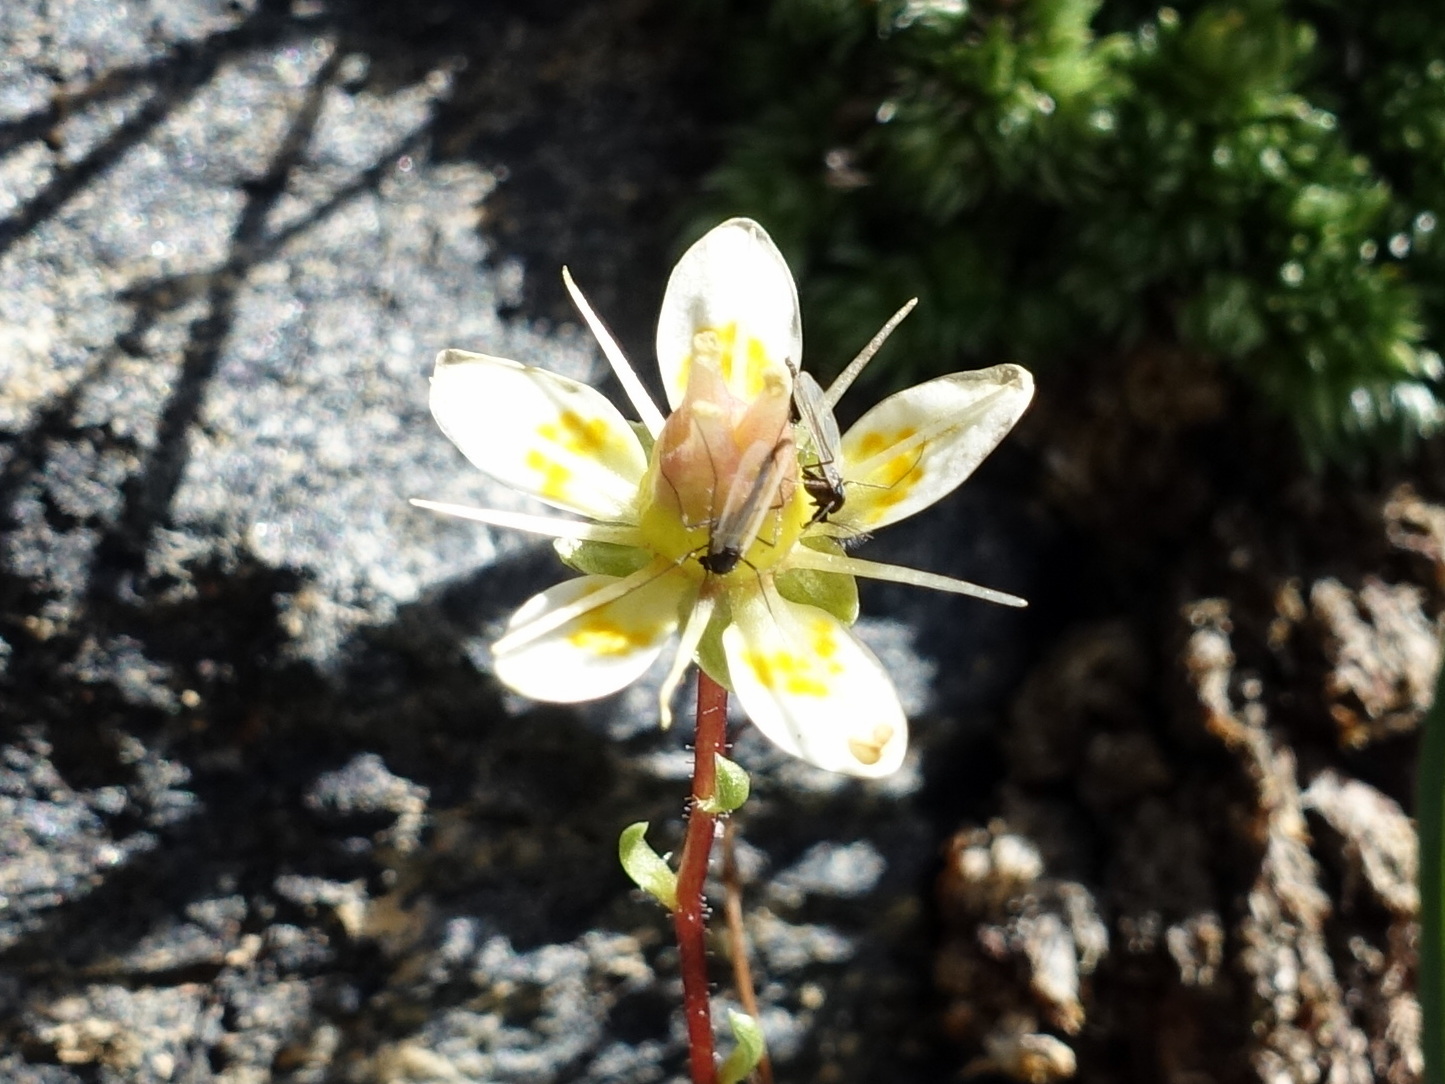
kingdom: Plantae
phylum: Tracheophyta
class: Magnoliopsida
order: Saxifragales
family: Saxifragaceae
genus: Saxifraga
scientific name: Saxifraga bryoides
